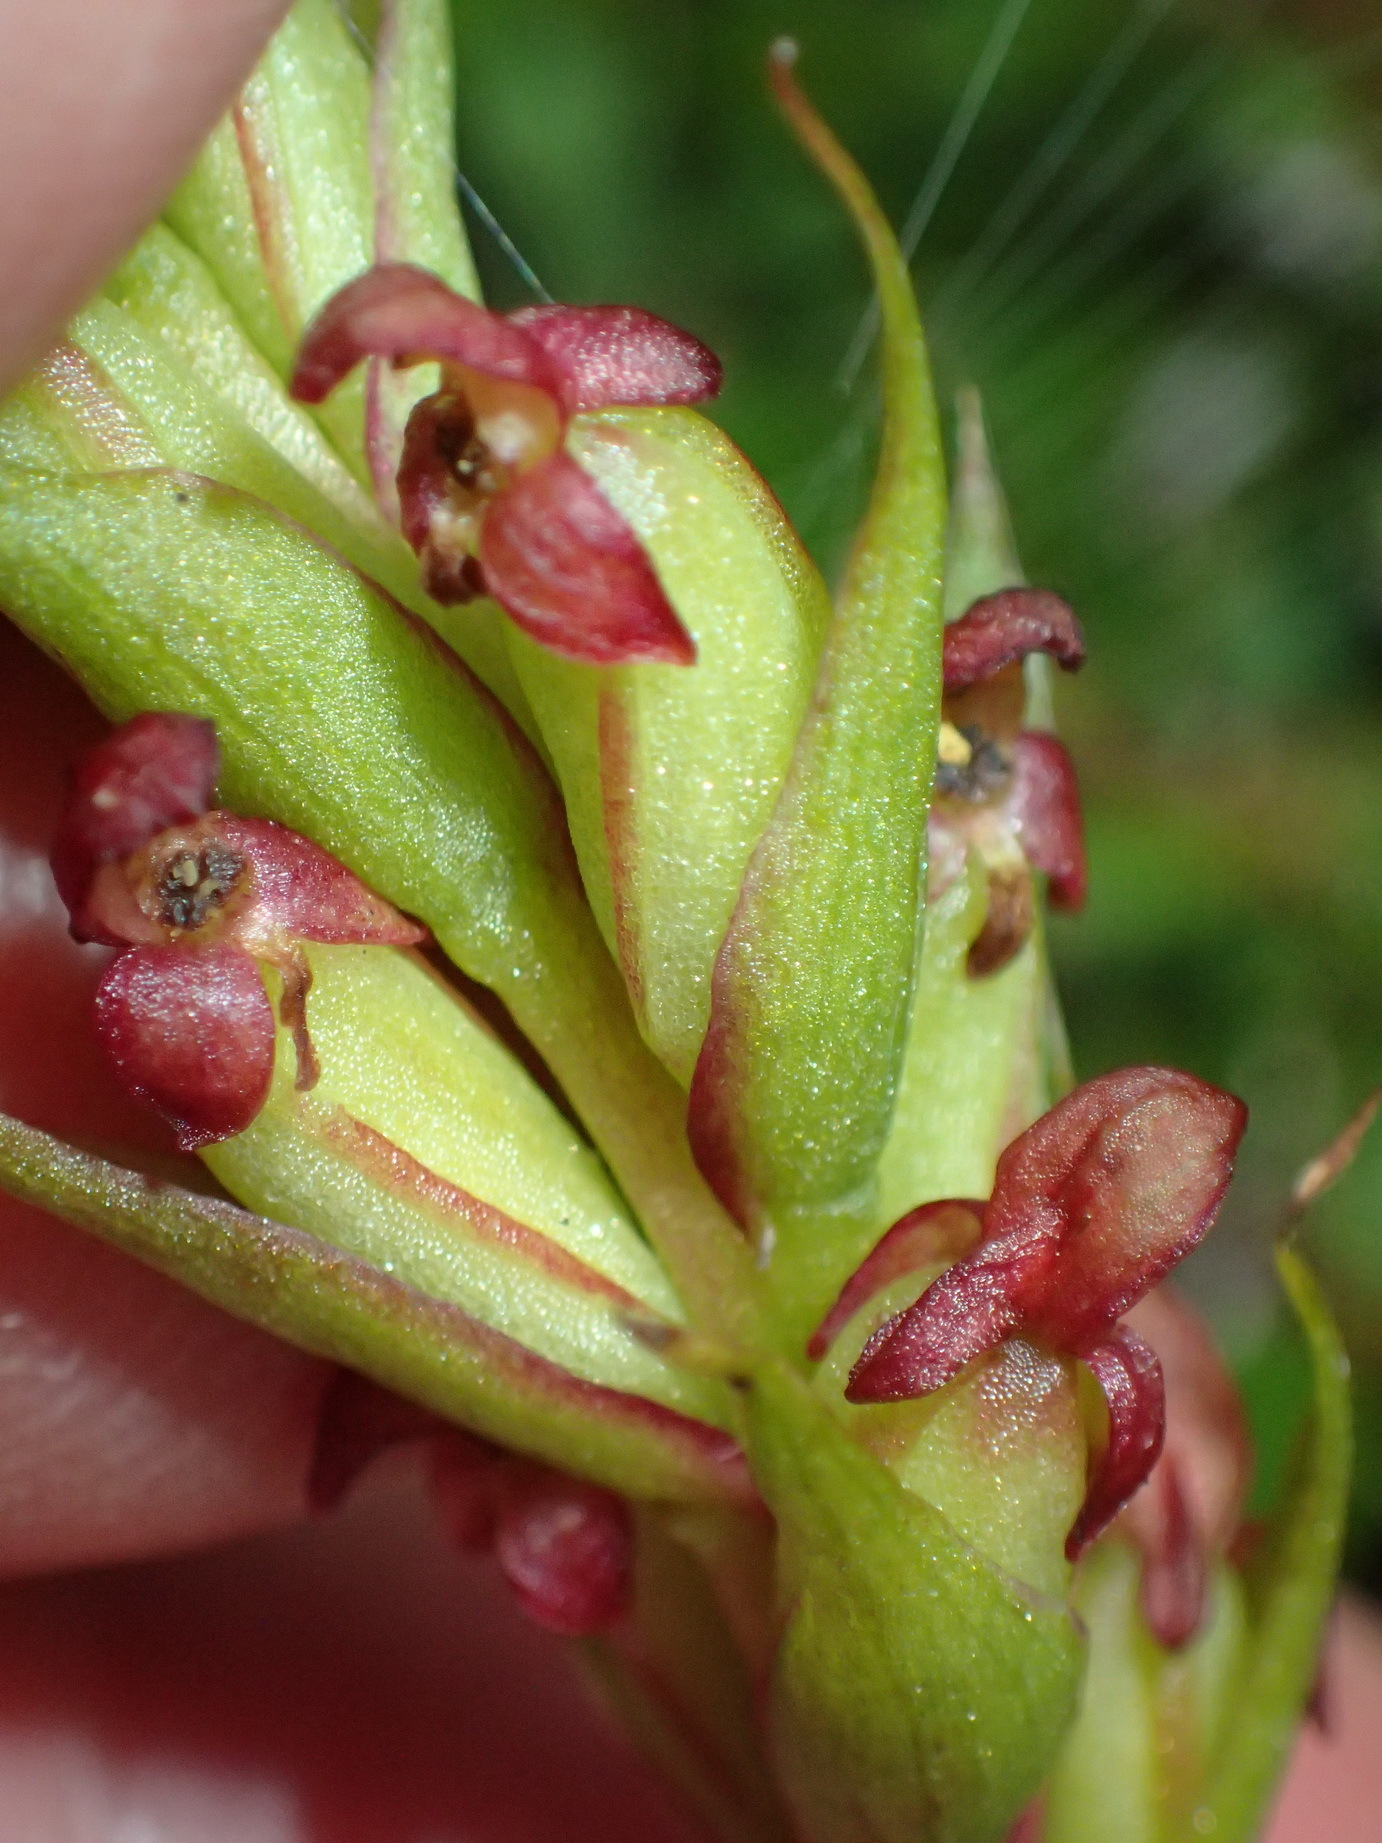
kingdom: Plantae
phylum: Tracheophyta
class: Liliopsida
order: Asparagales
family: Orchidaceae
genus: Disa
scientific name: Disa densiflora
